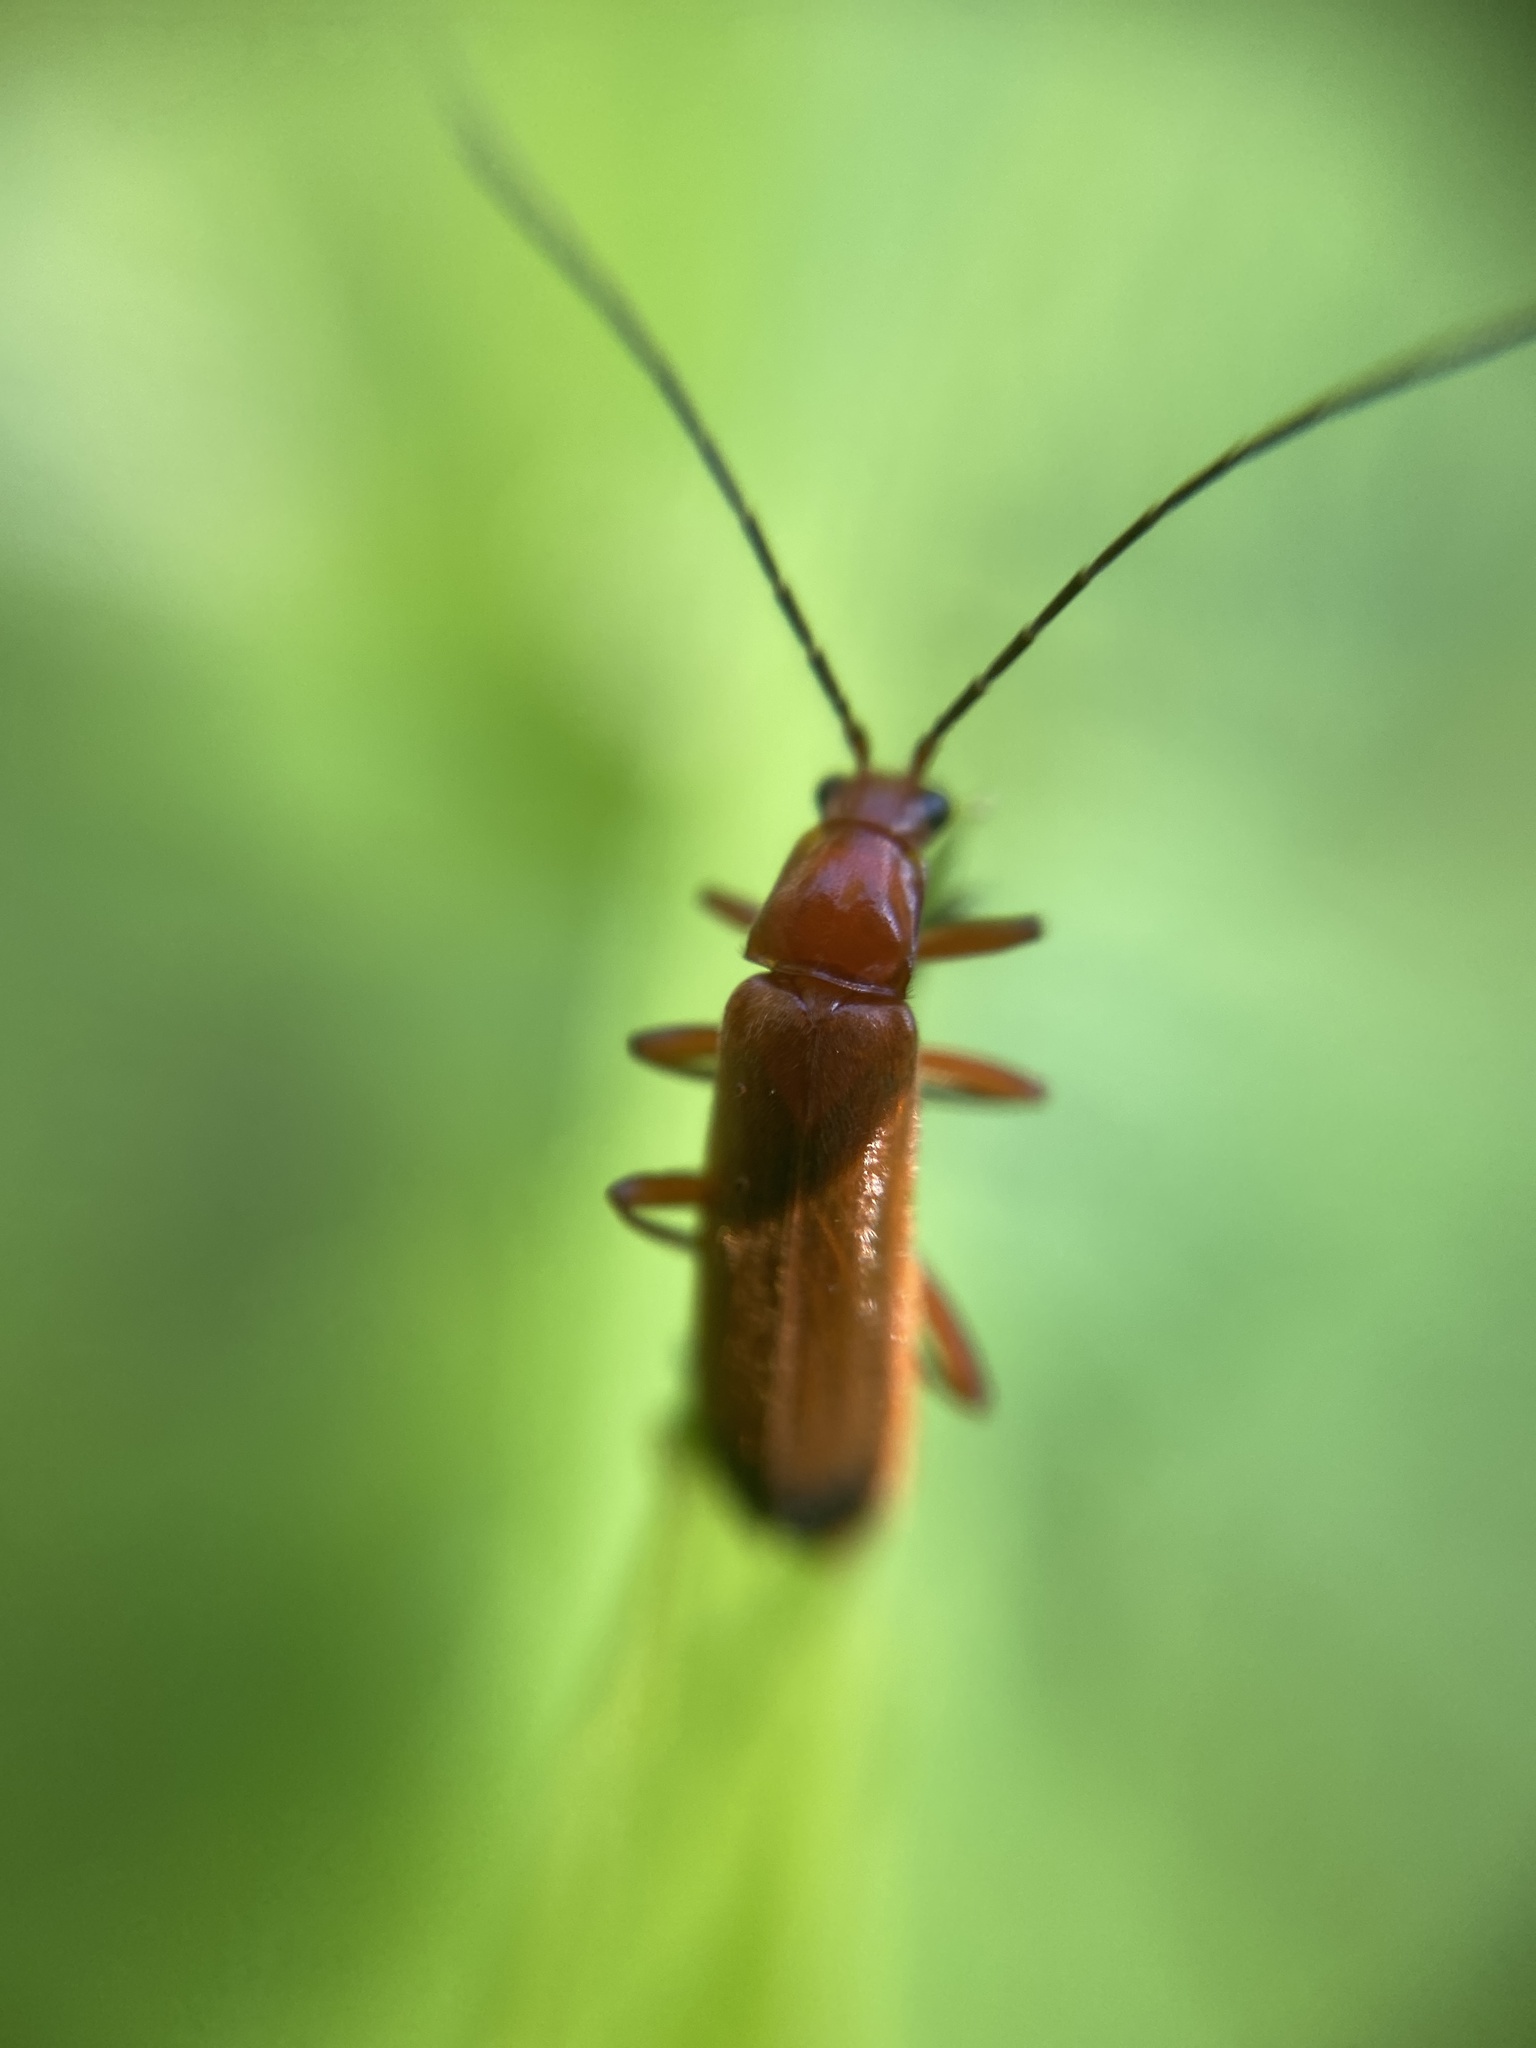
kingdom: Animalia
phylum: Arthropoda
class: Insecta
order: Coleoptera
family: Cantharidae
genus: Rhagonycha
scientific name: Rhagonycha fulva
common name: Common red soldier beetle
